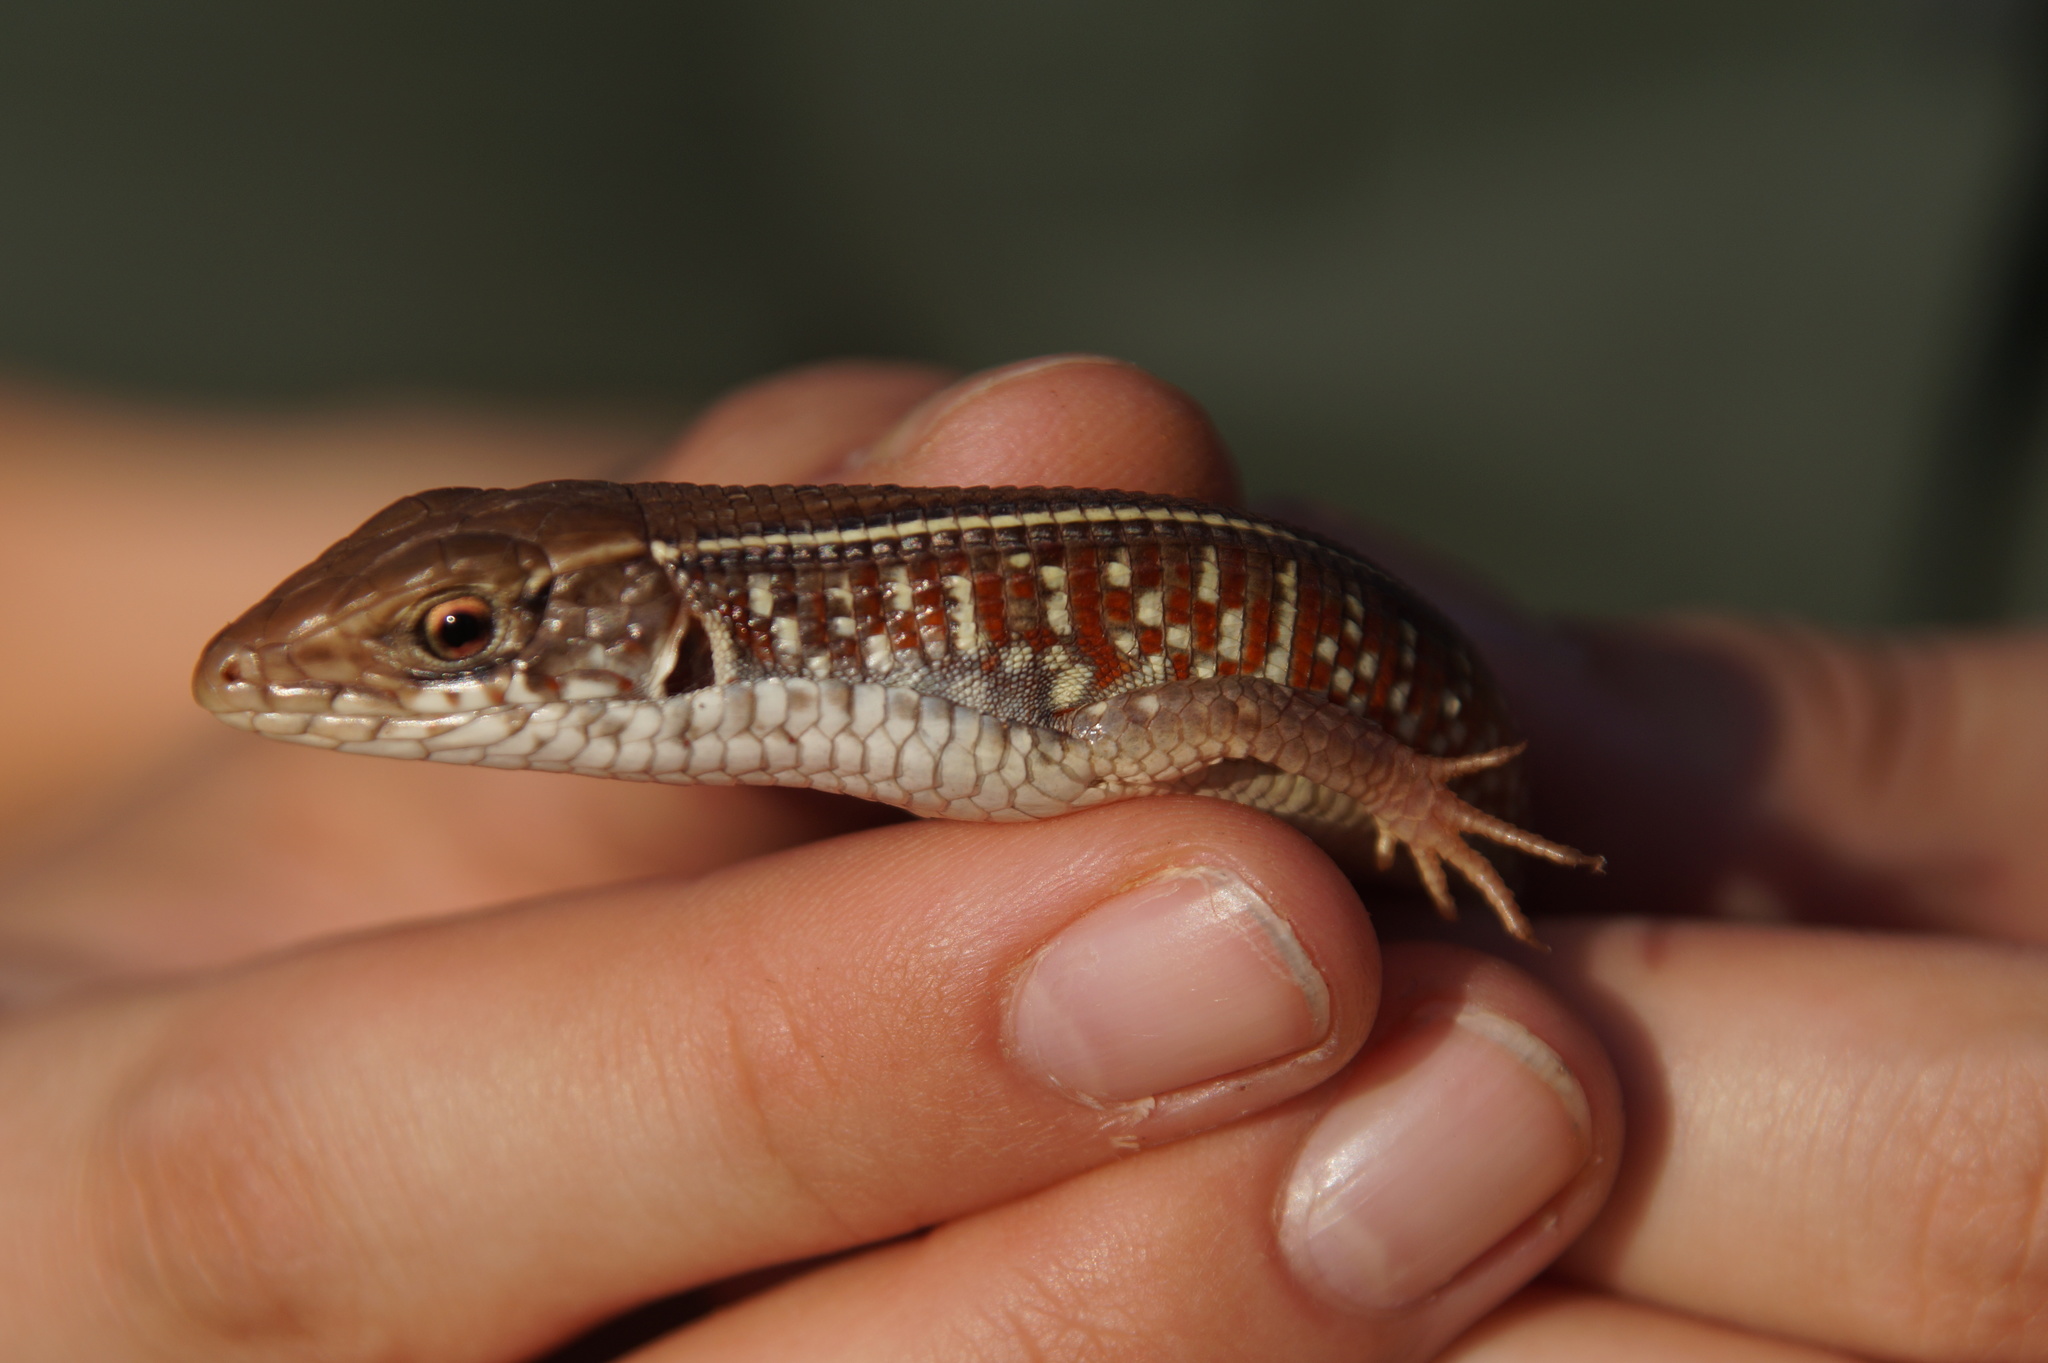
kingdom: Animalia
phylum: Chordata
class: Squamata
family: Gerrhosauridae
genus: Gerrhosaurus
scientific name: Gerrhosaurus nigrolineatus
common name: Black-lined plated lizard
